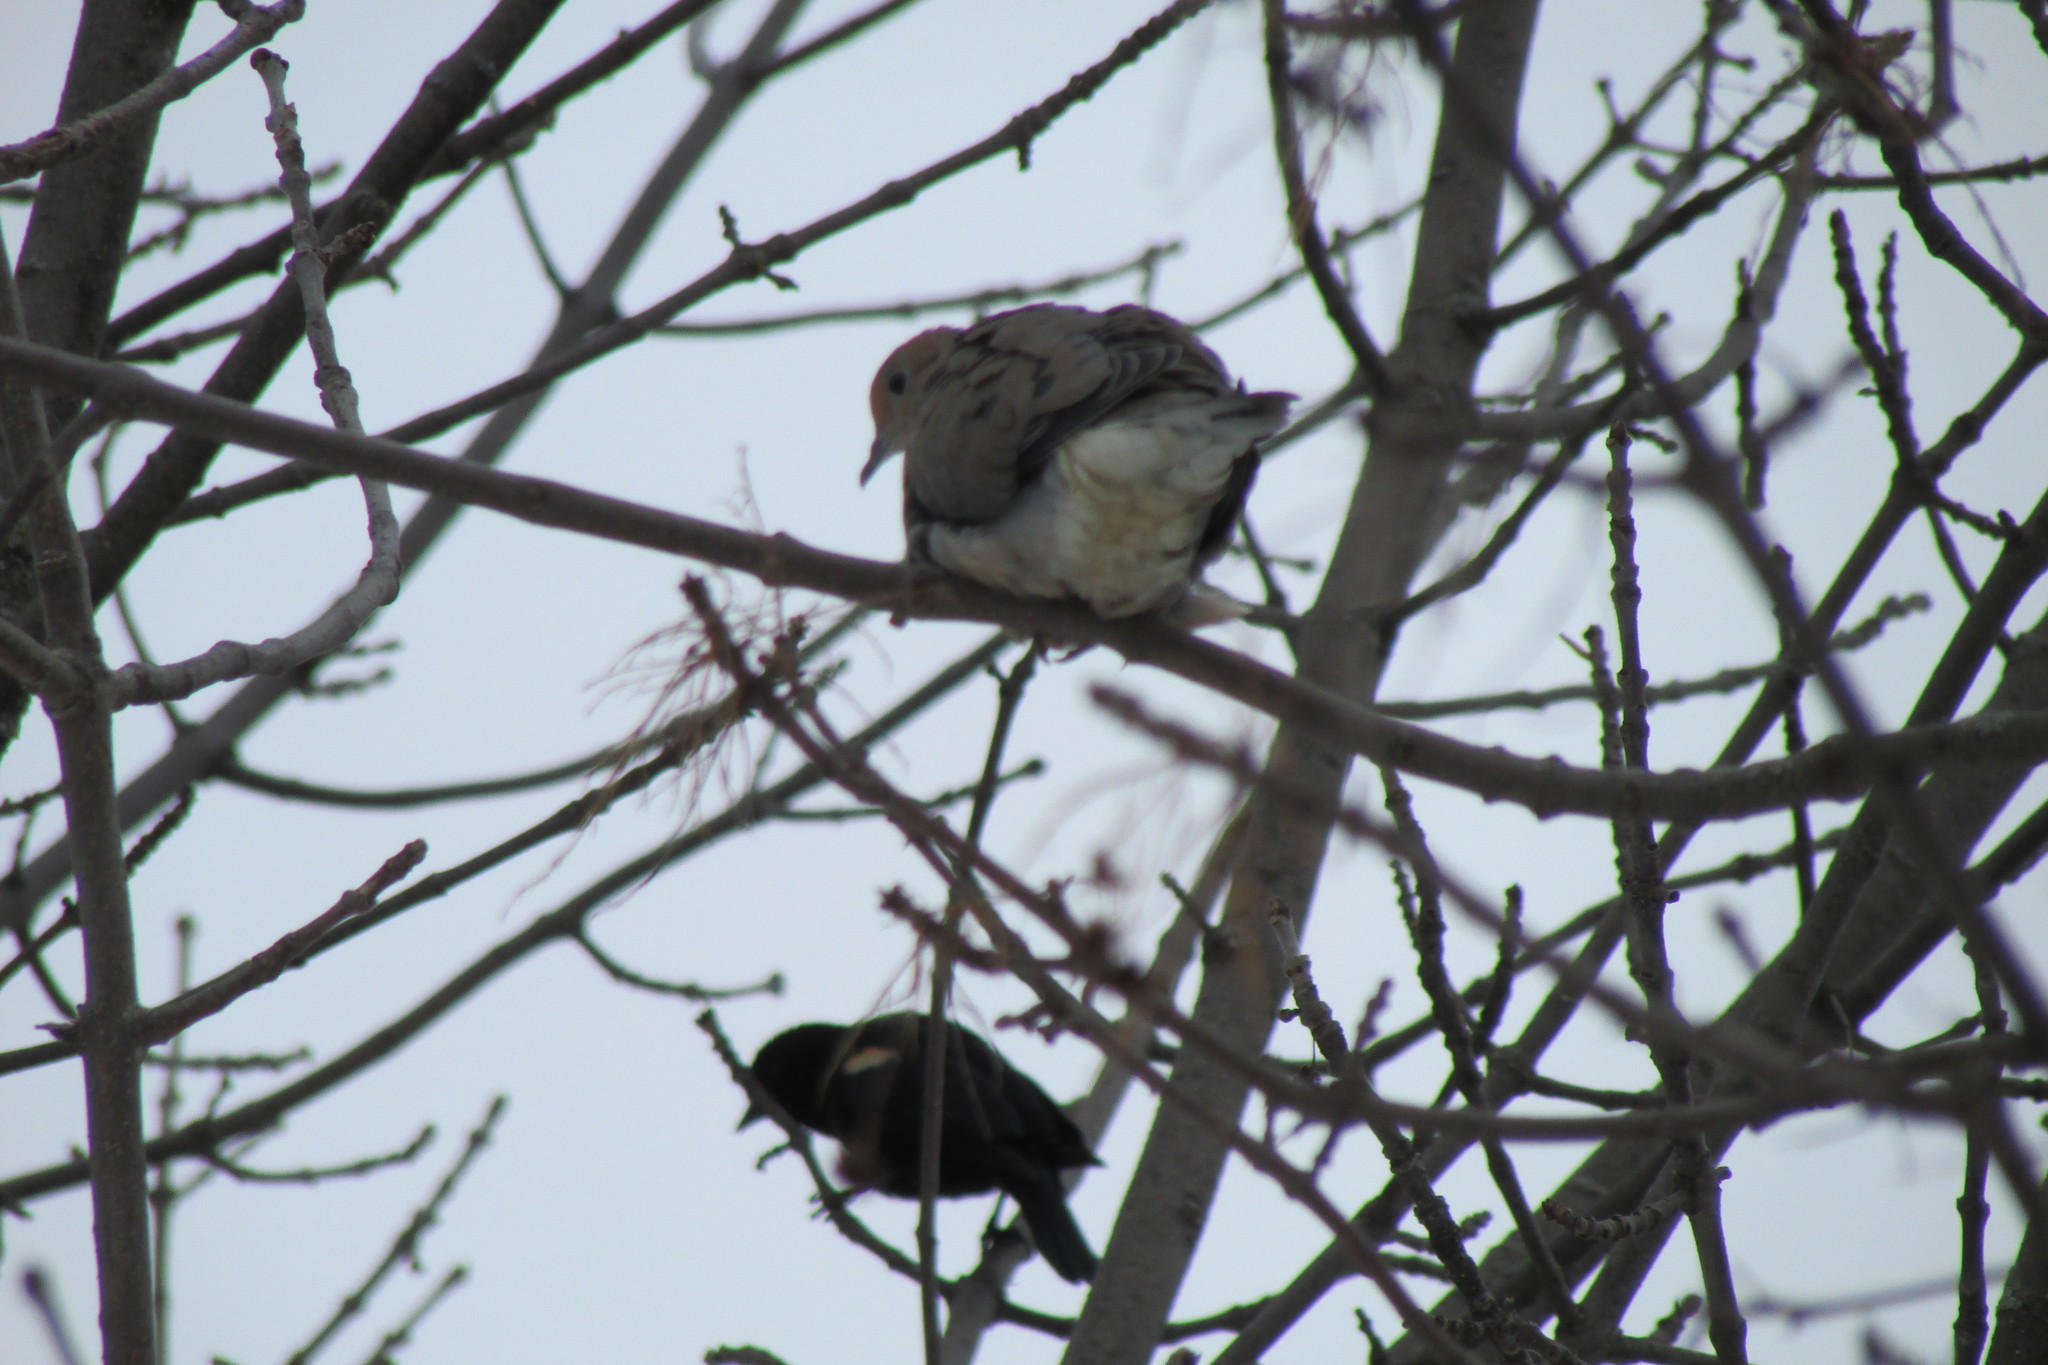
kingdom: Animalia
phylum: Chordata
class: Aves
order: Columbiformes
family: Columbidae
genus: Zenaida
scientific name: Zenaida macroura
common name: Mourning dove
